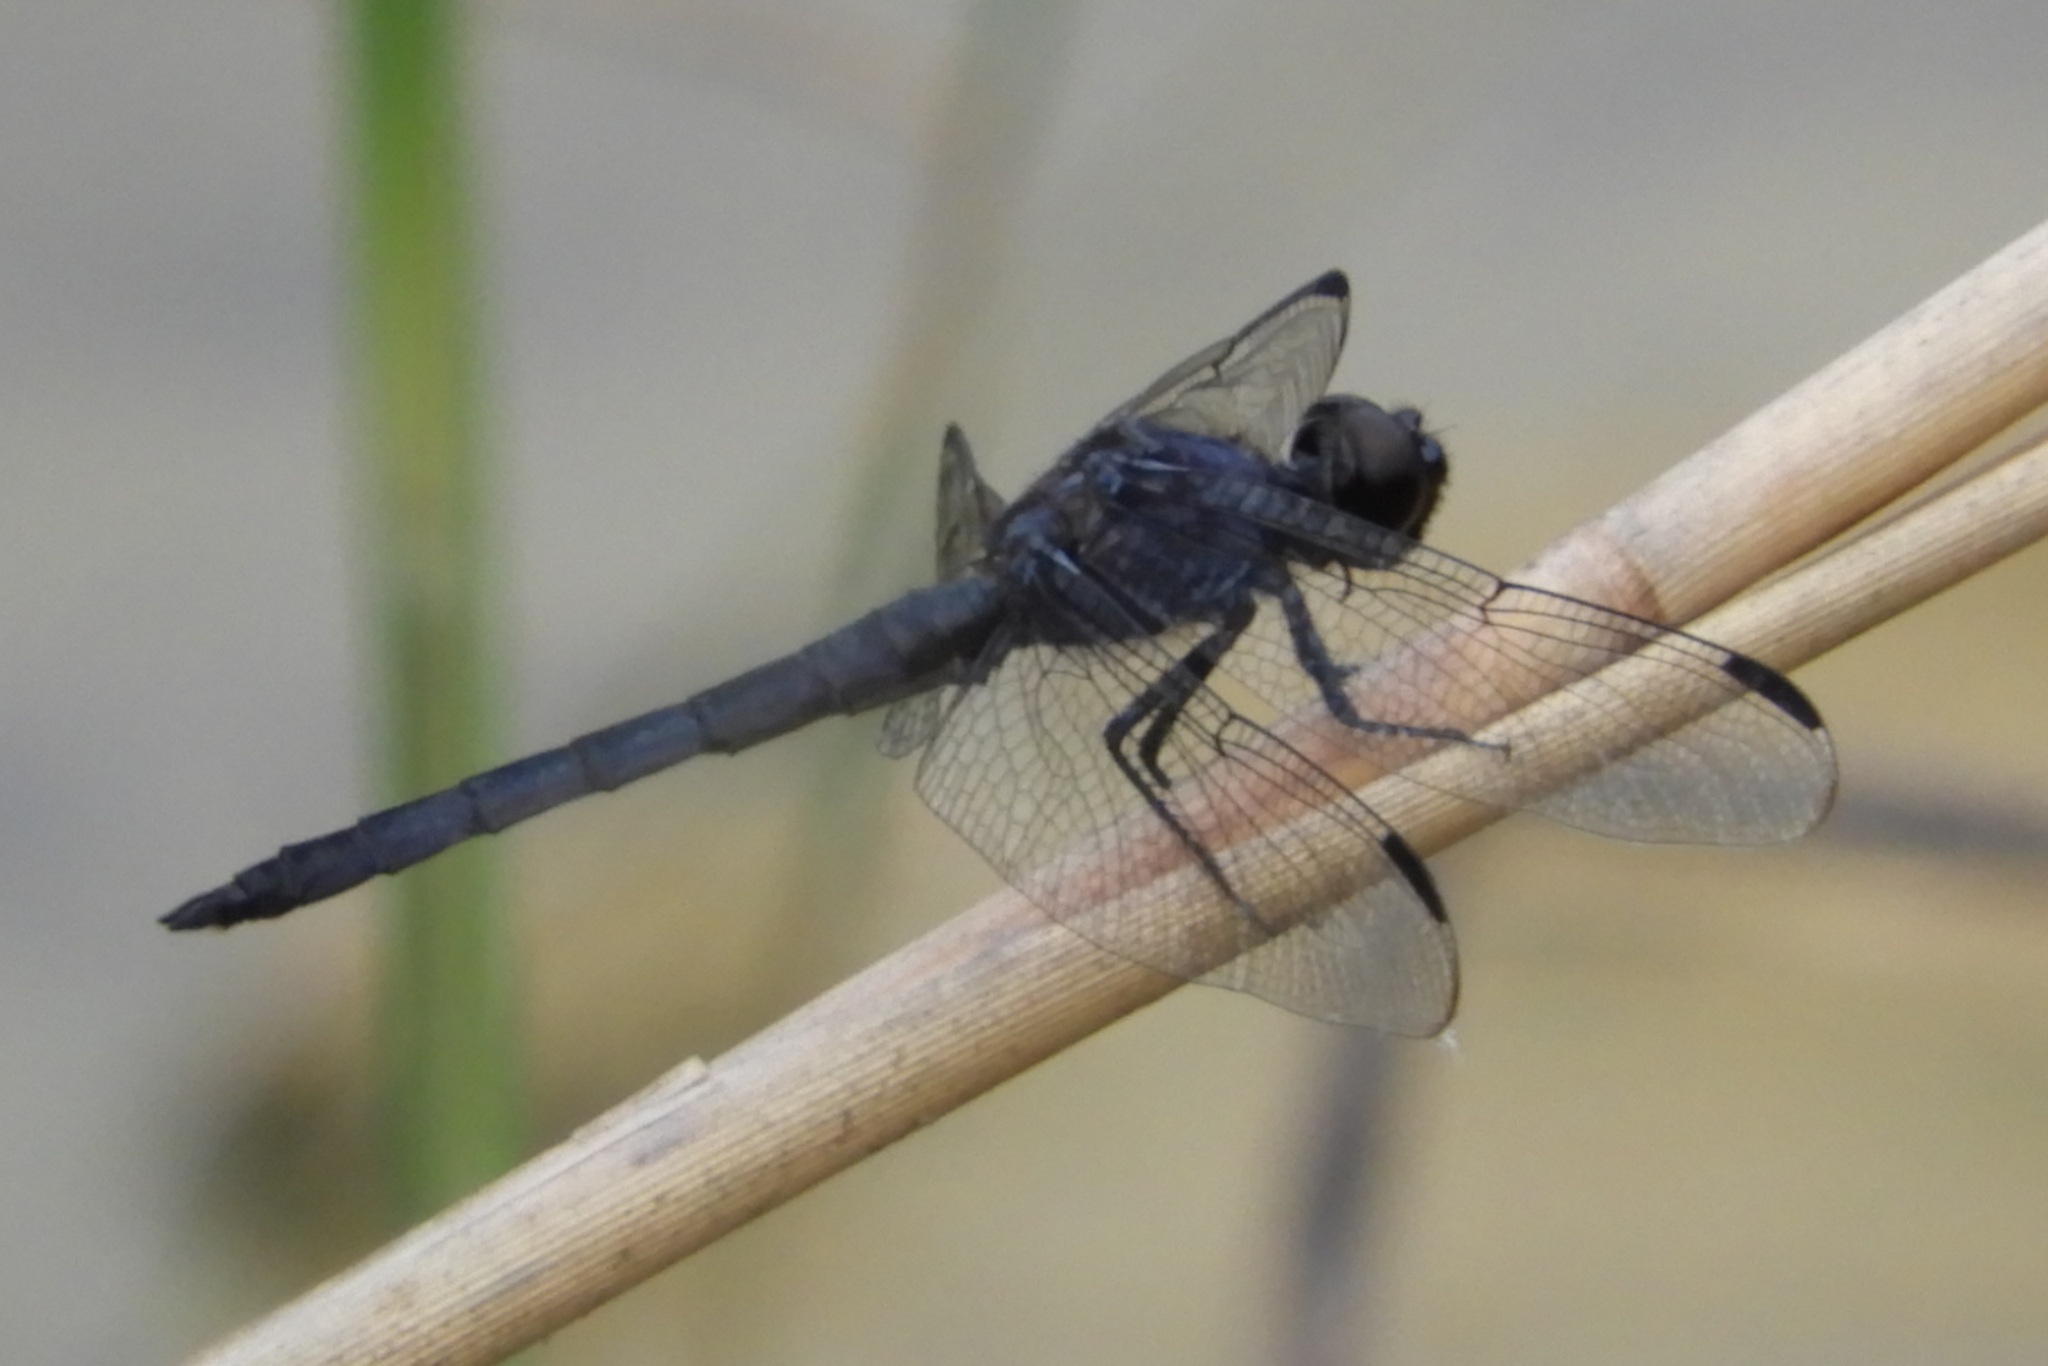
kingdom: Animalia
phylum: Arthropoda
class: Insecta
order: Odonata
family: Libellulidae
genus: Libellula
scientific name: Libellula incesta
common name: Slaty skimmer
